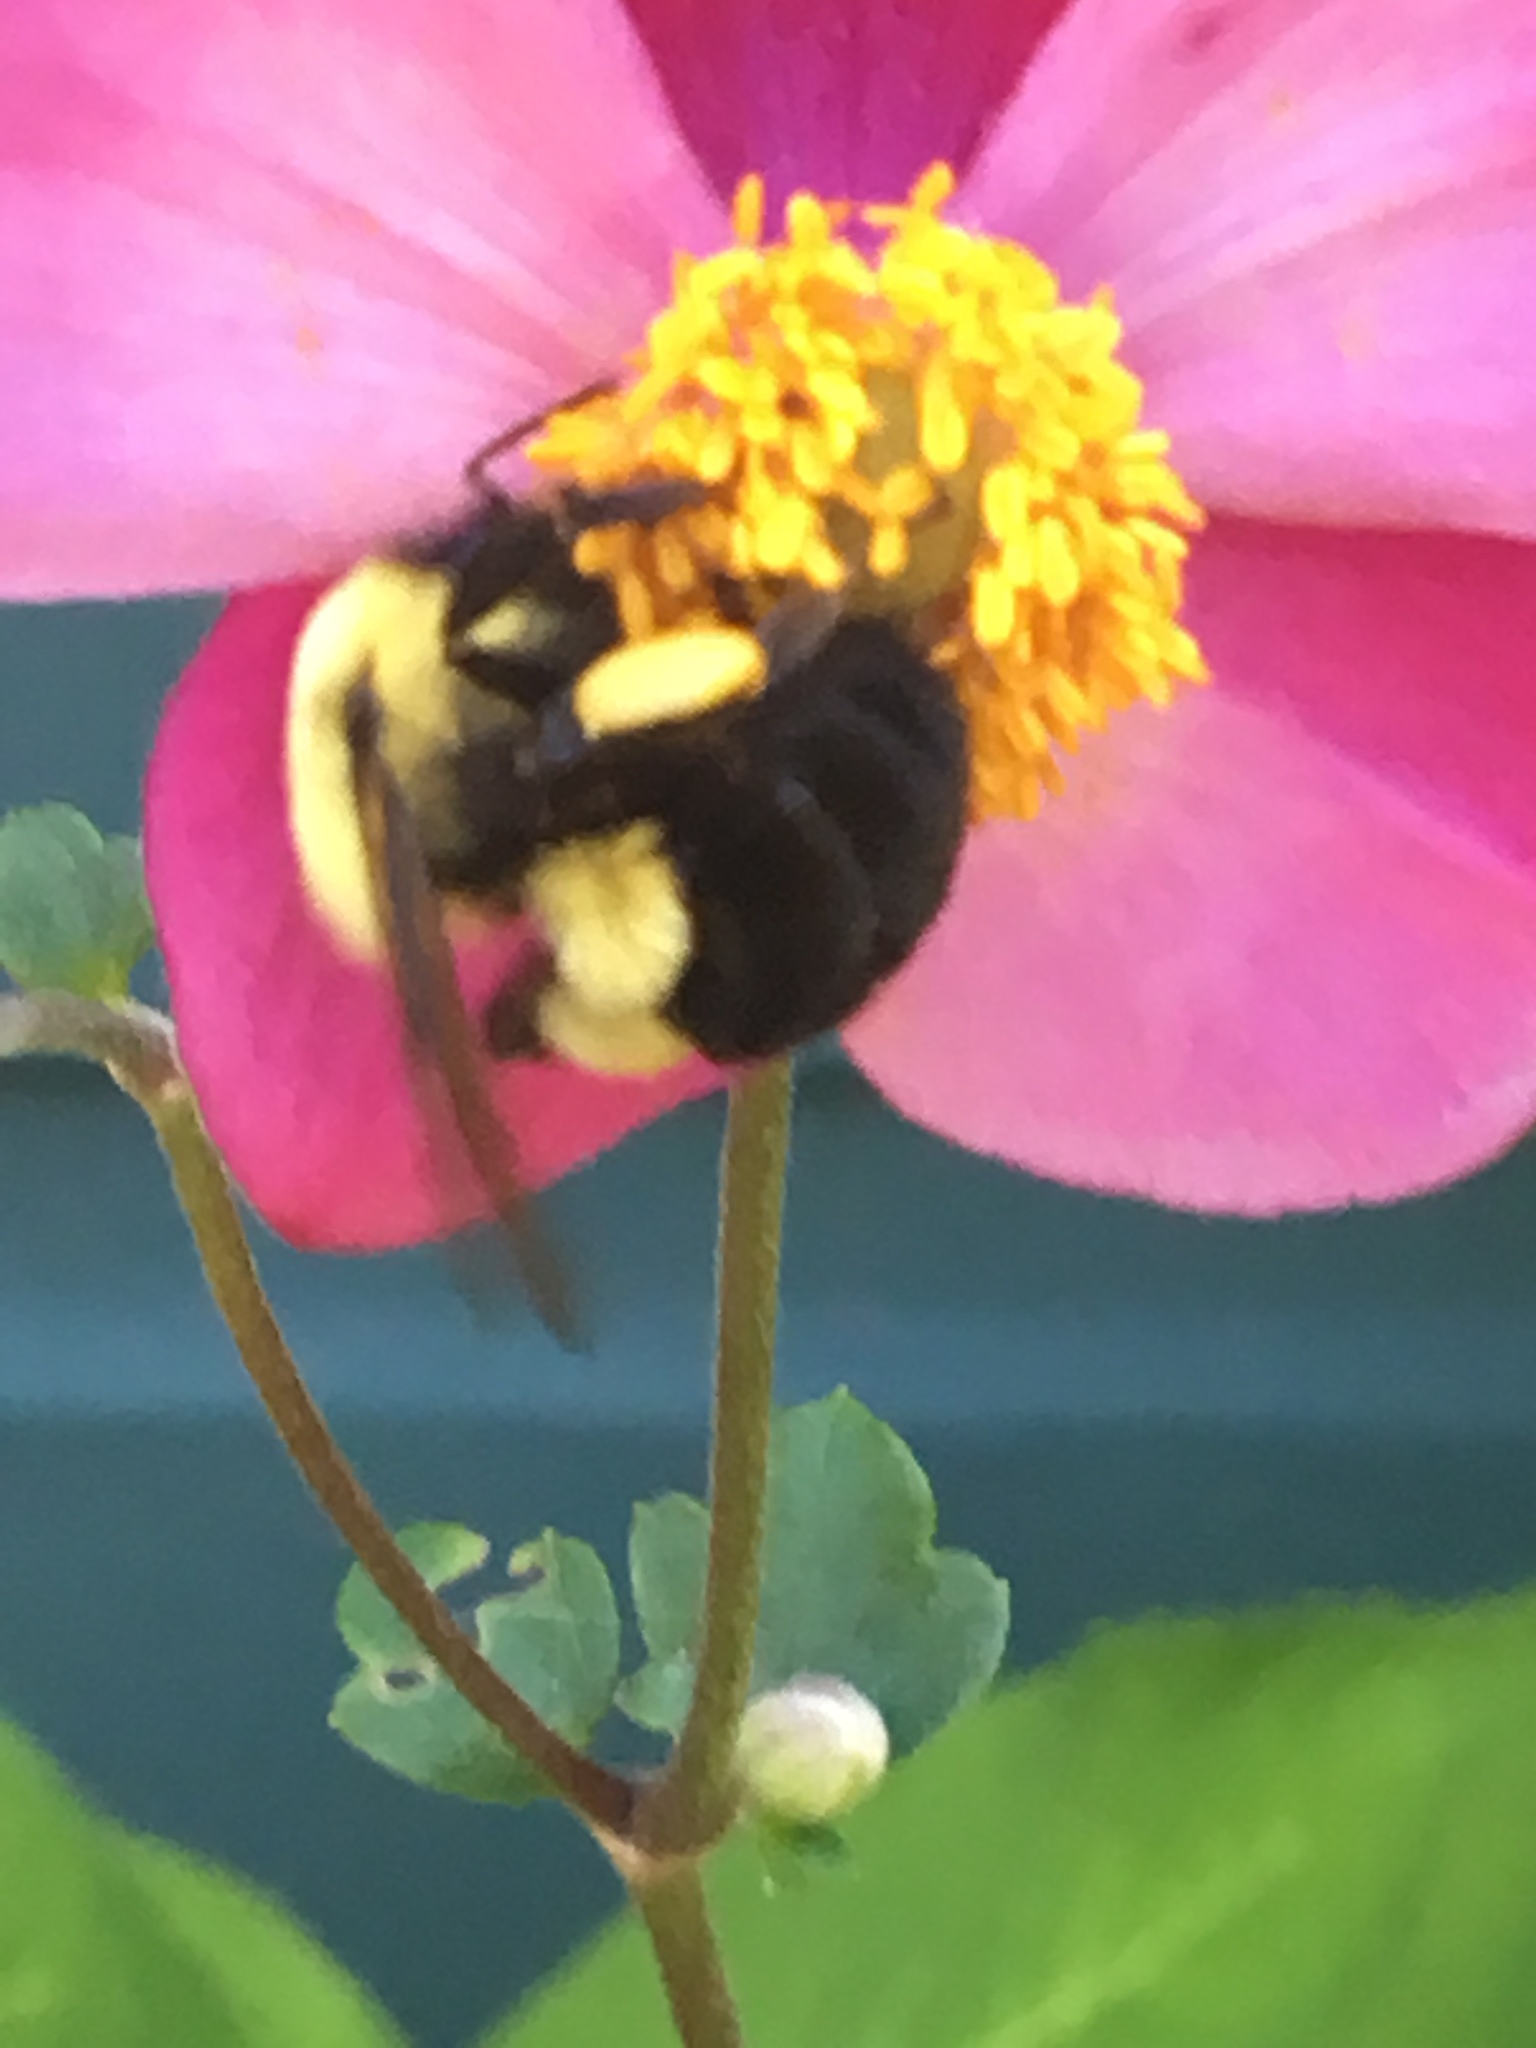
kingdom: Animalia
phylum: Arthropoda
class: Insecta
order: Hymenoptera
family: Apidae
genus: Bombus
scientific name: Bombus impatiens
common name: Common eastern bumble bee
